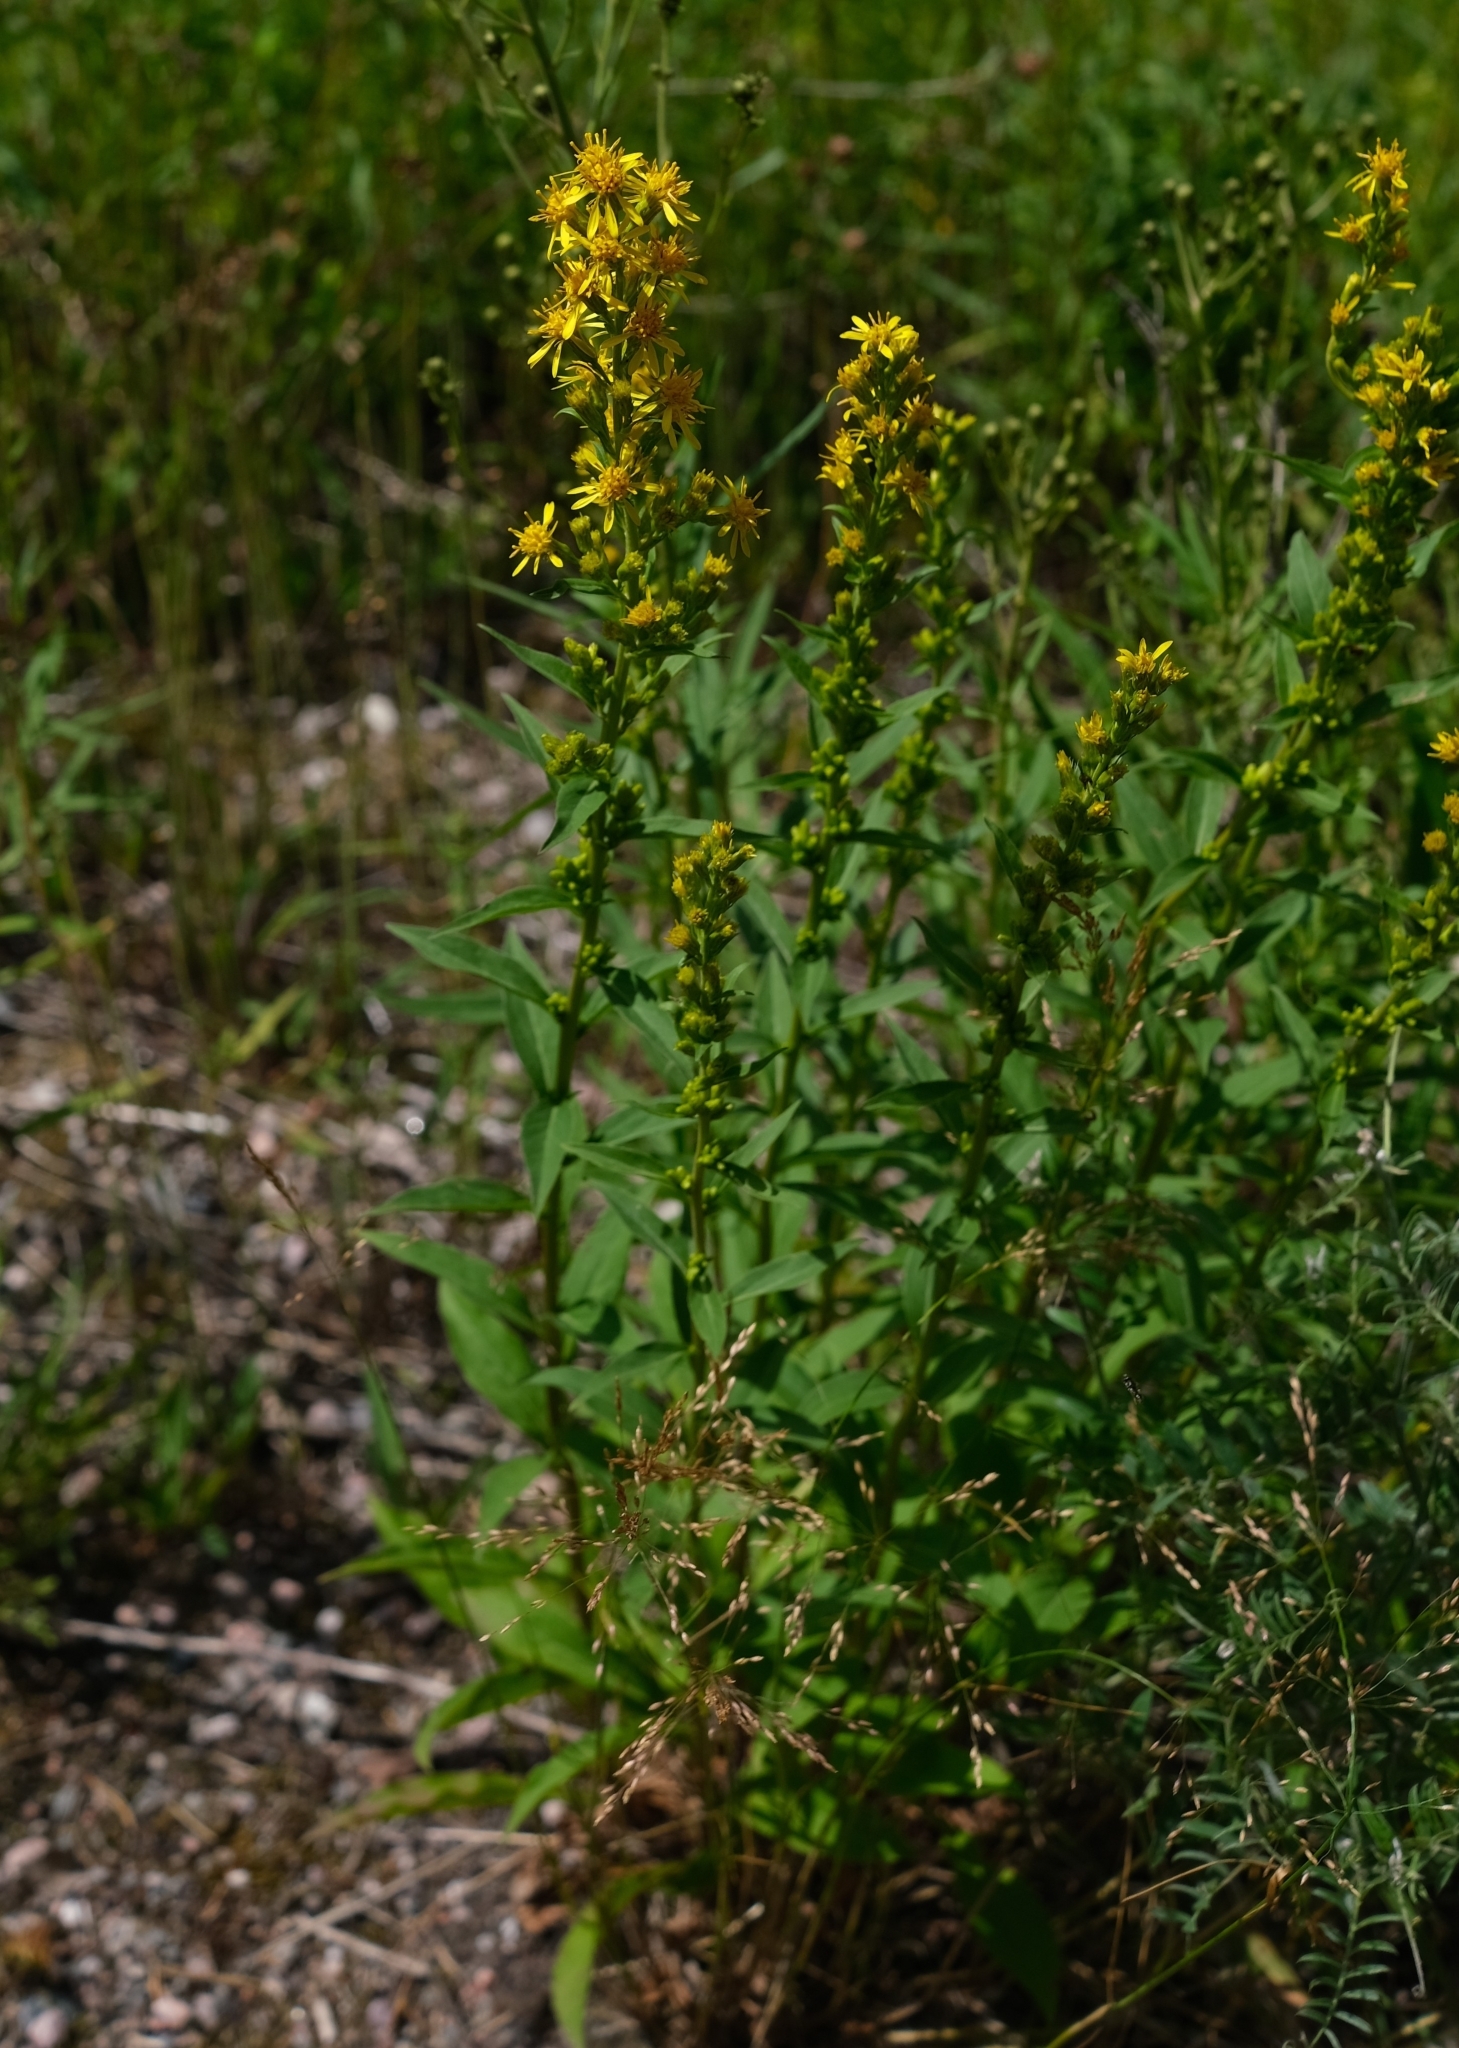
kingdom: Plantae
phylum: Tracheophyta
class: Magnoliopsida
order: Asterales
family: Asteraceae
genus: Solidago
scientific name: Solidago virgaurea
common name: Goldenrod
